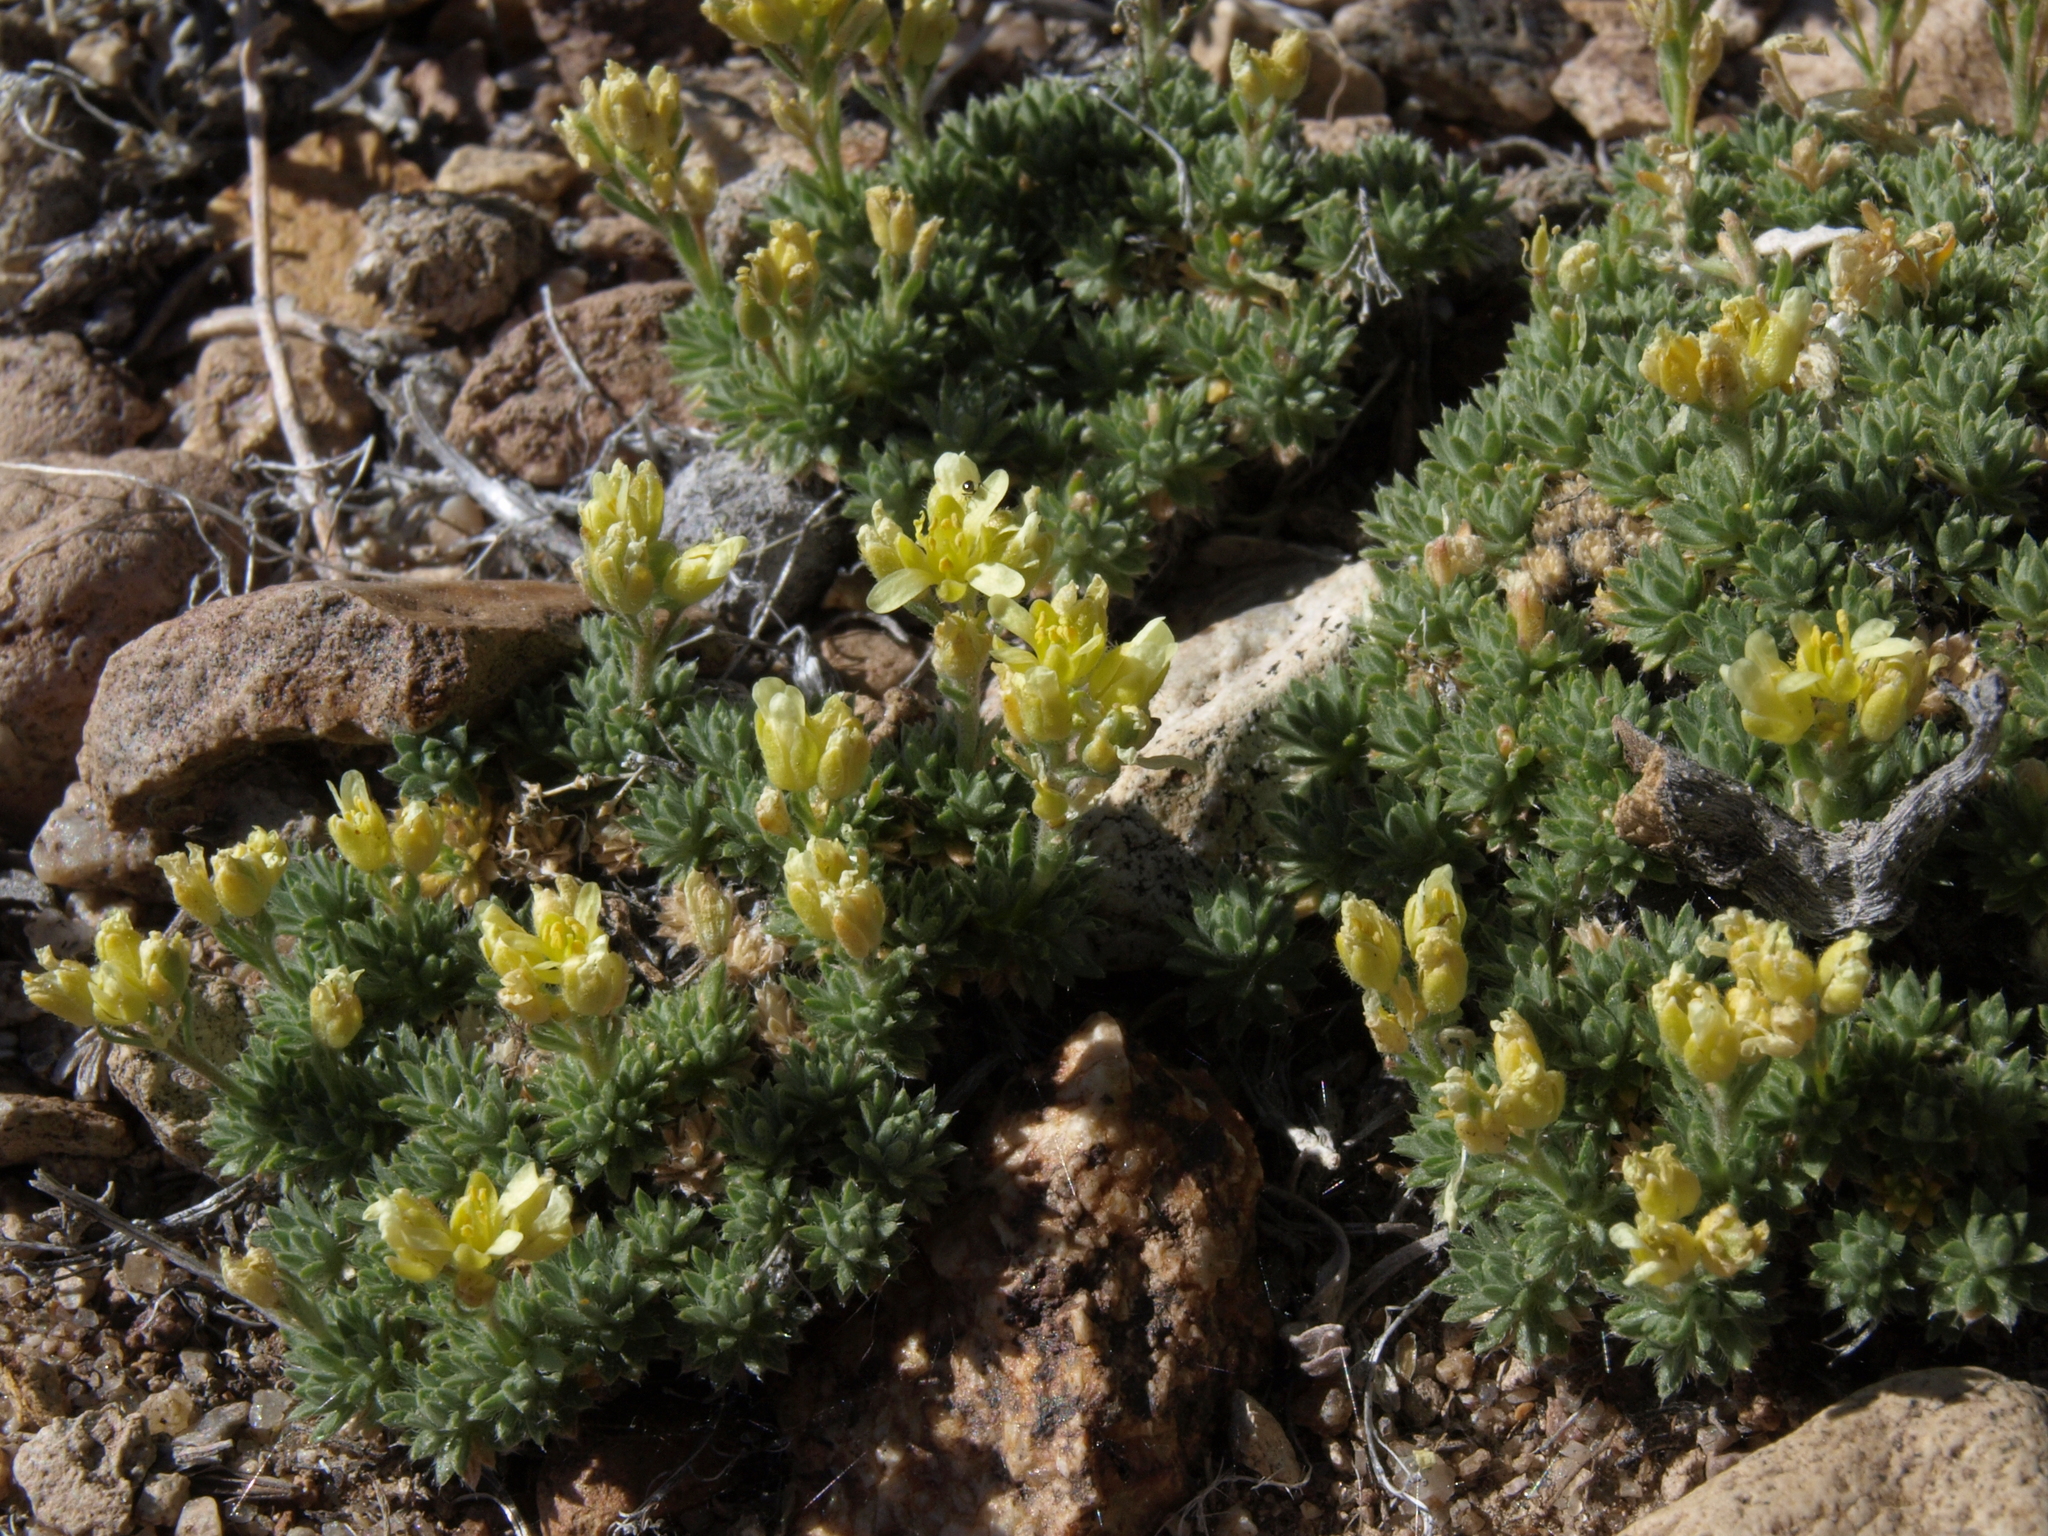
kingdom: Plantae
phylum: Tracheophyta
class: Magnoliopsida
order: Brassicales
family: Brassicaceae
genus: Cusickiella
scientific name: Cusickiella quadricostata
